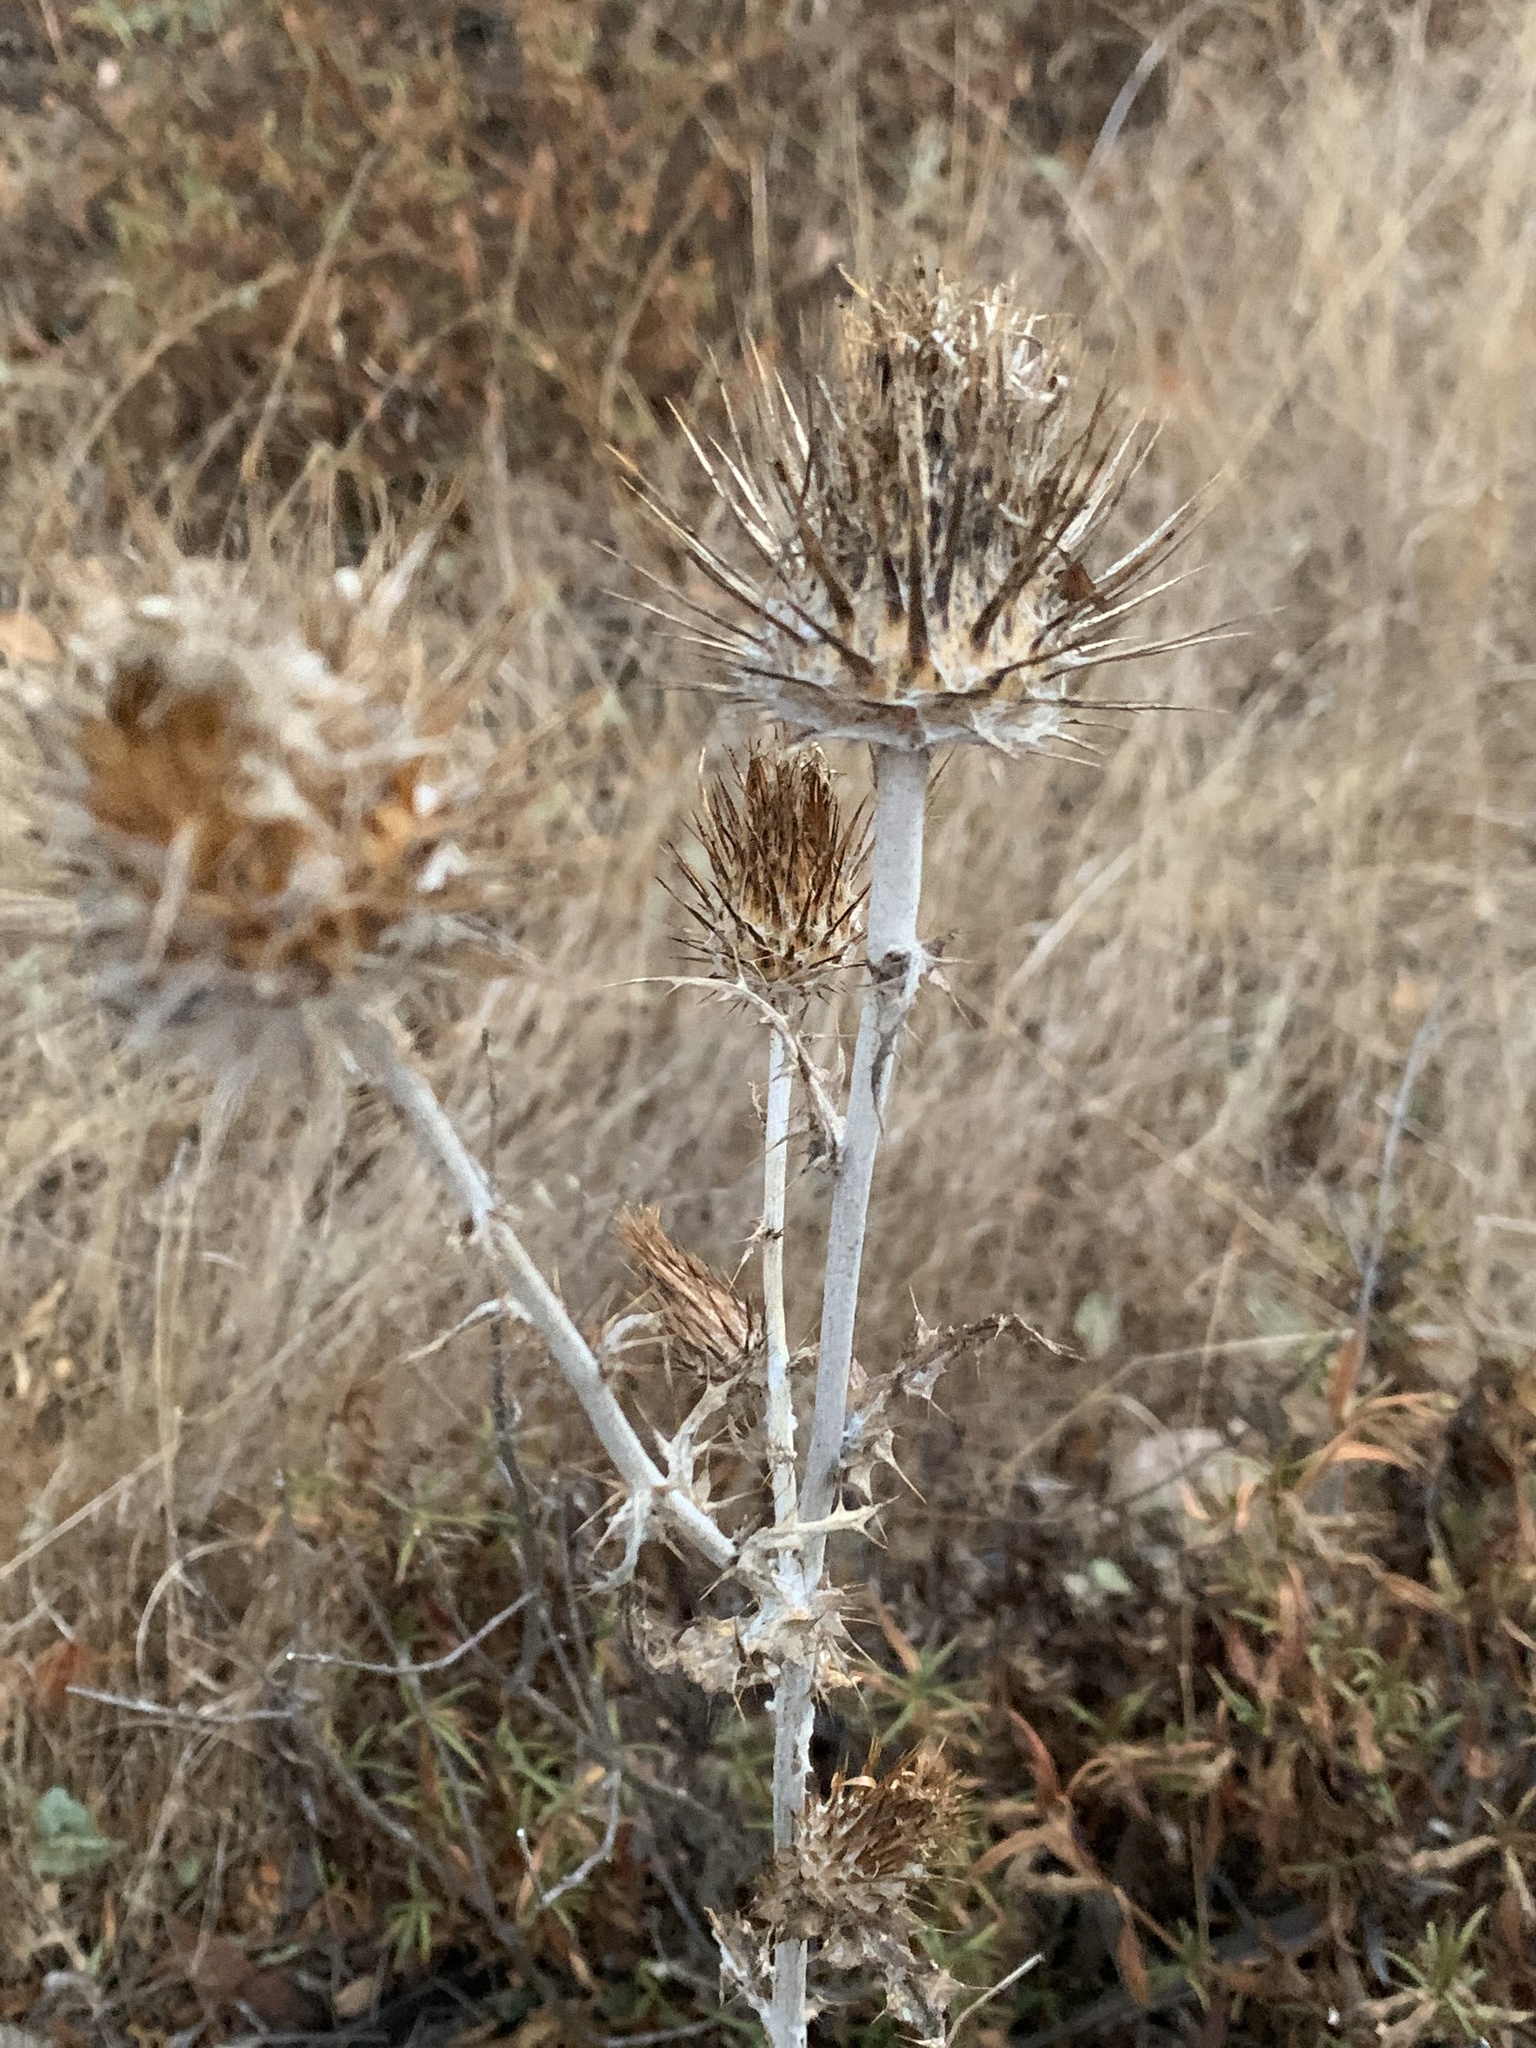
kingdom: Plantae
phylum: Tracheophyta
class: Magnoliopsida
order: Asterales
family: Asteraceae
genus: Cirsium
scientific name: Cirsium occidentale
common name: Western thistle
